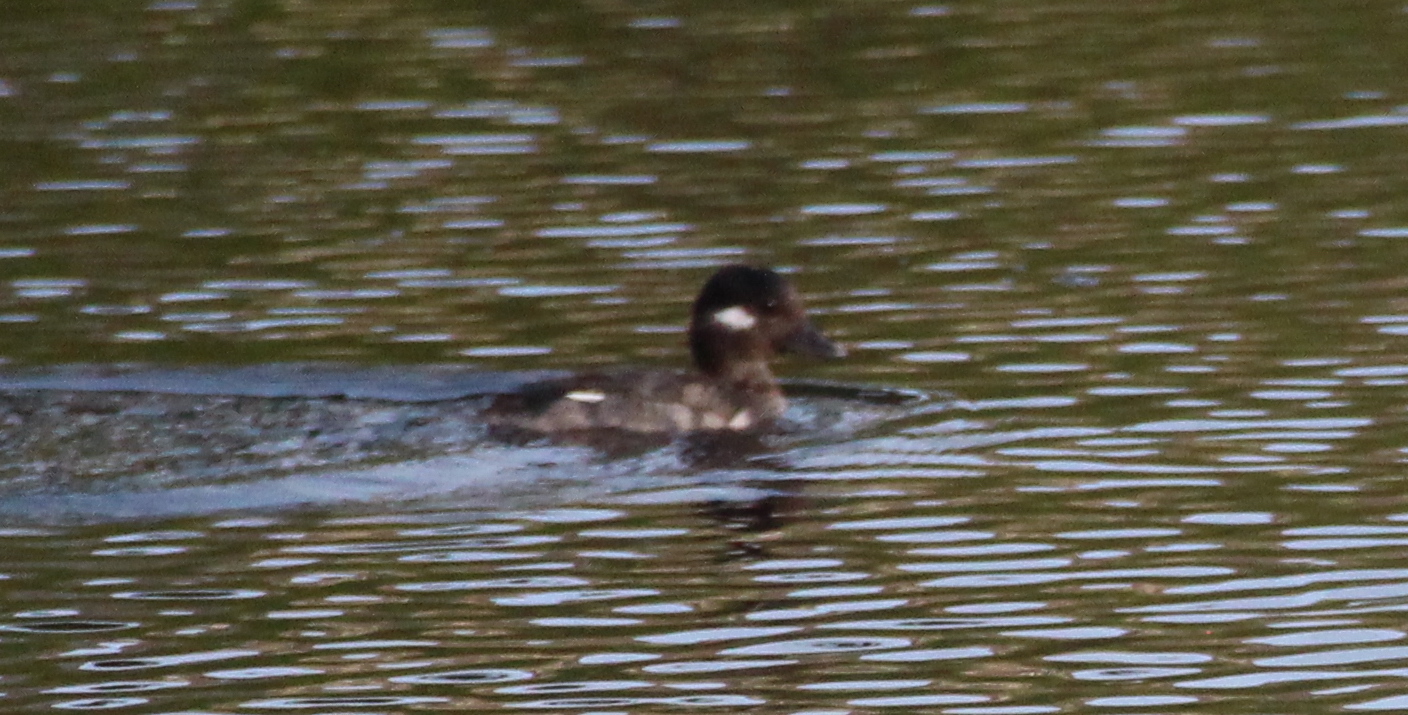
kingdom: Animalia
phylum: Chordata
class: Aves
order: Anseriformes
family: Anatidae
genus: Bucephala
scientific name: Bucephala albeola
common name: Bufflehead
